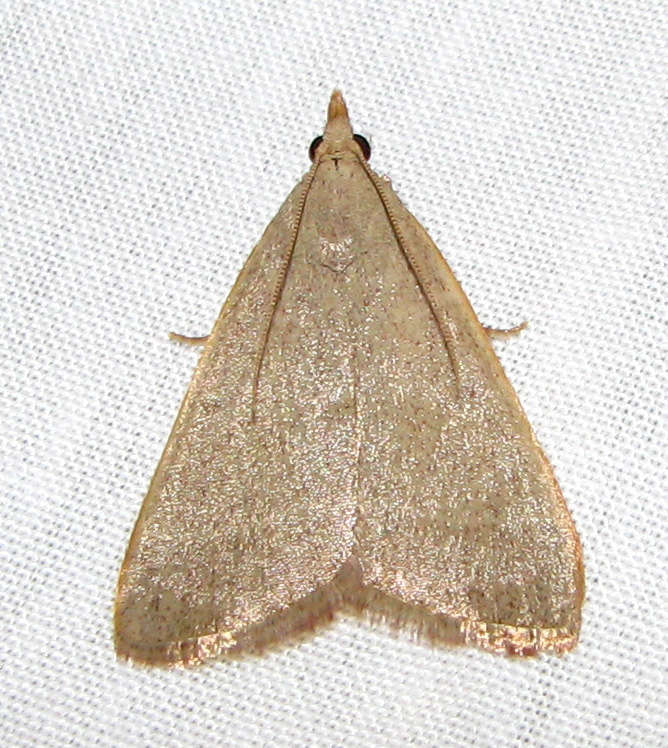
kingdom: Animalia
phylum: Arthropoda
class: Insecta
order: Lepidoptera
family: Pyralidae
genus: Hypsopygia
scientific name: Hypsopygia
